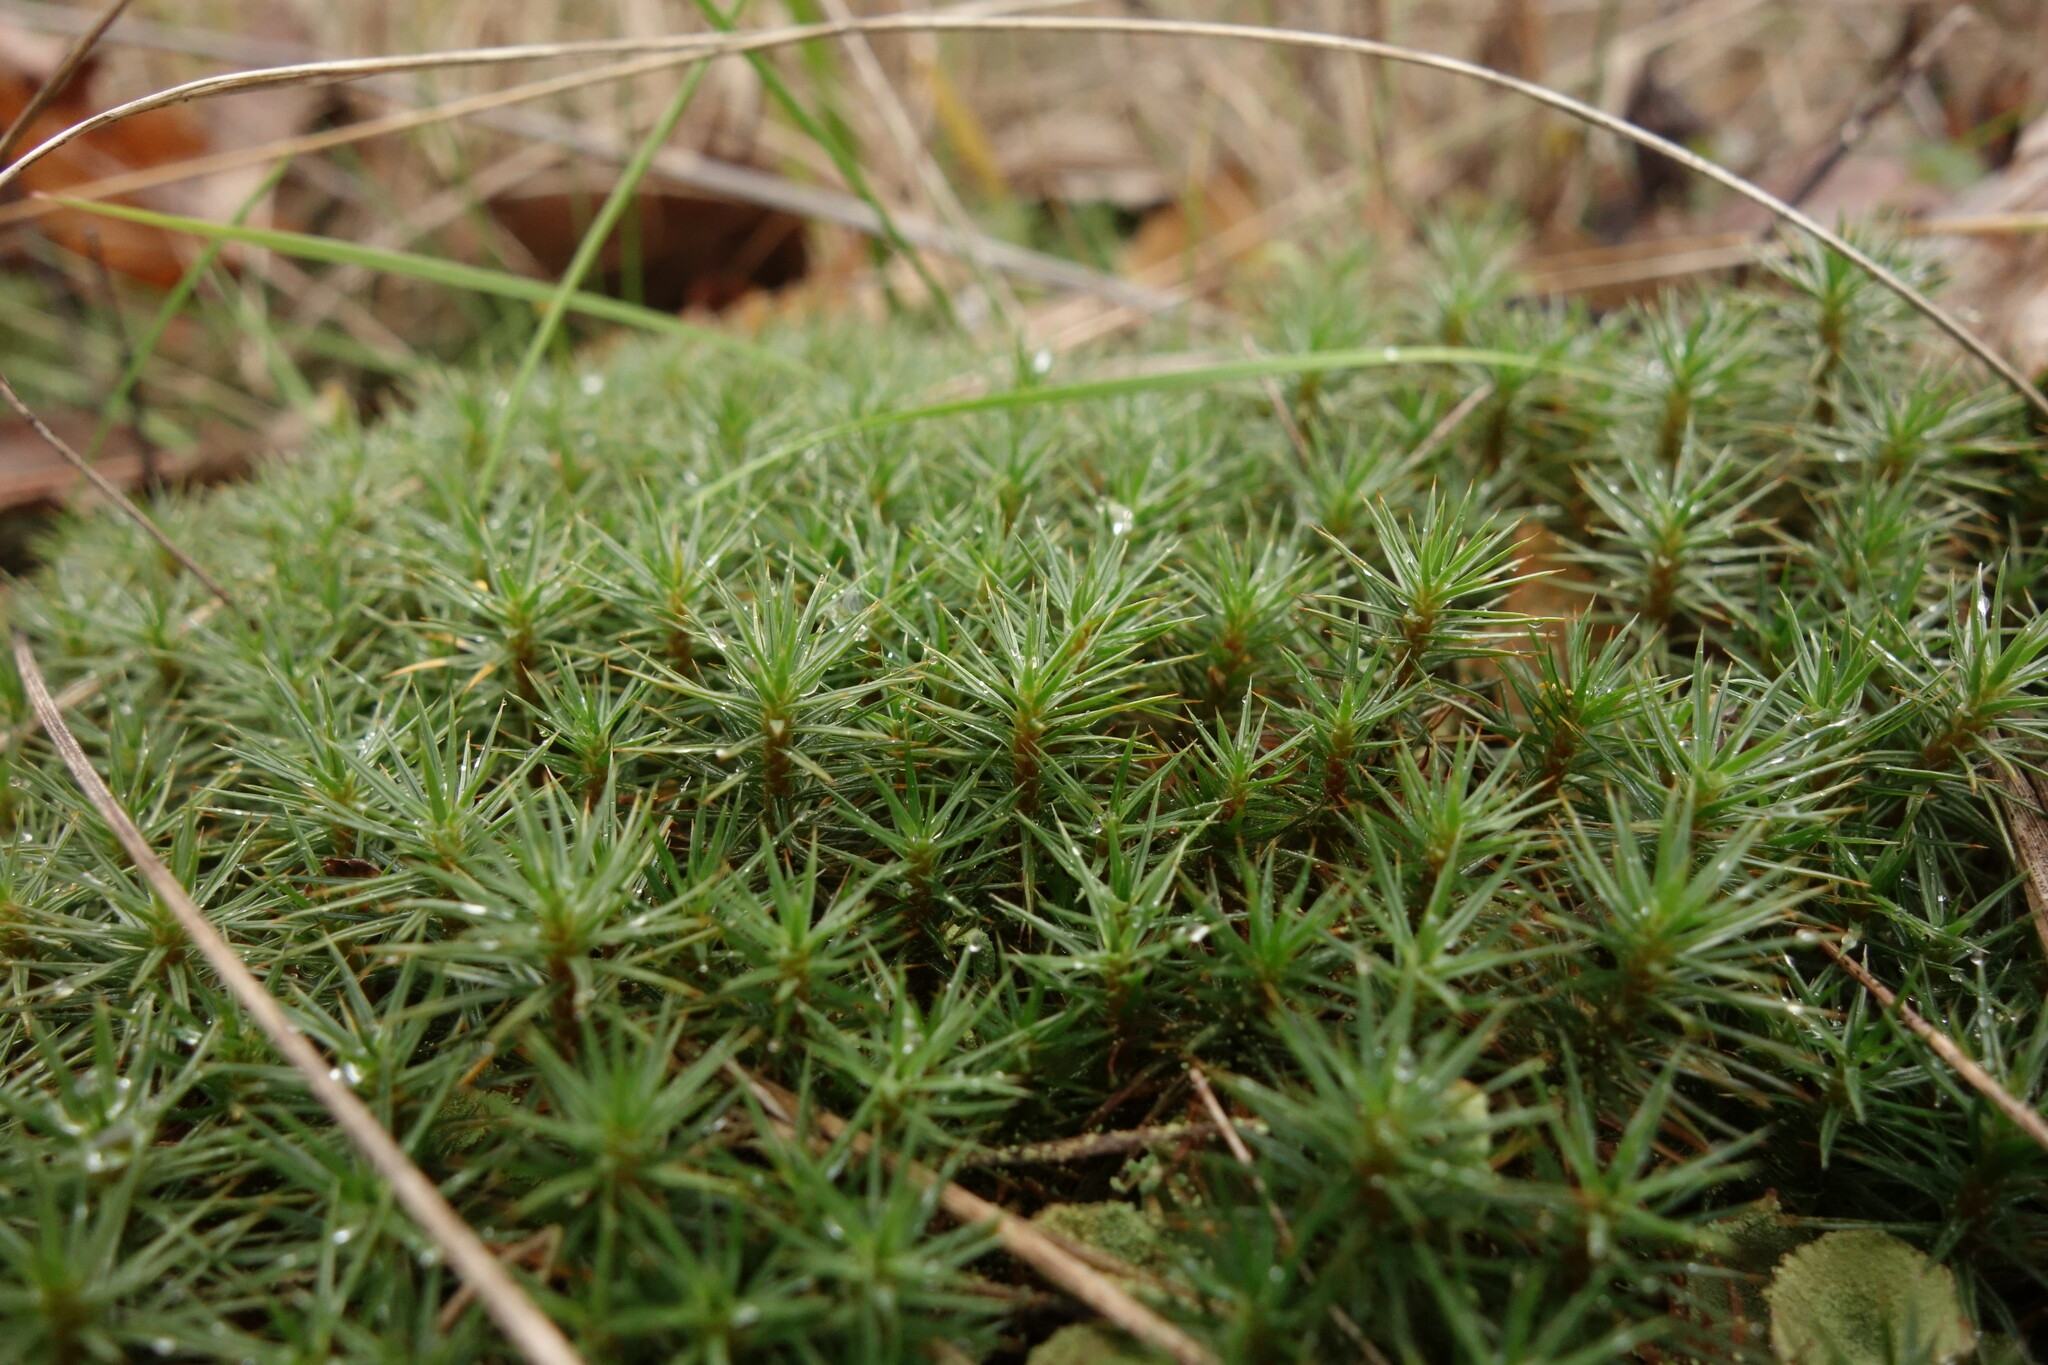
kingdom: Plantae
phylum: Bryophyta
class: Polytrichopsida
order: Polytrichales
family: Polytrichaceae
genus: Polytrichum
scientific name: Polytrichum juniperinum
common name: Juniper haircap moss
